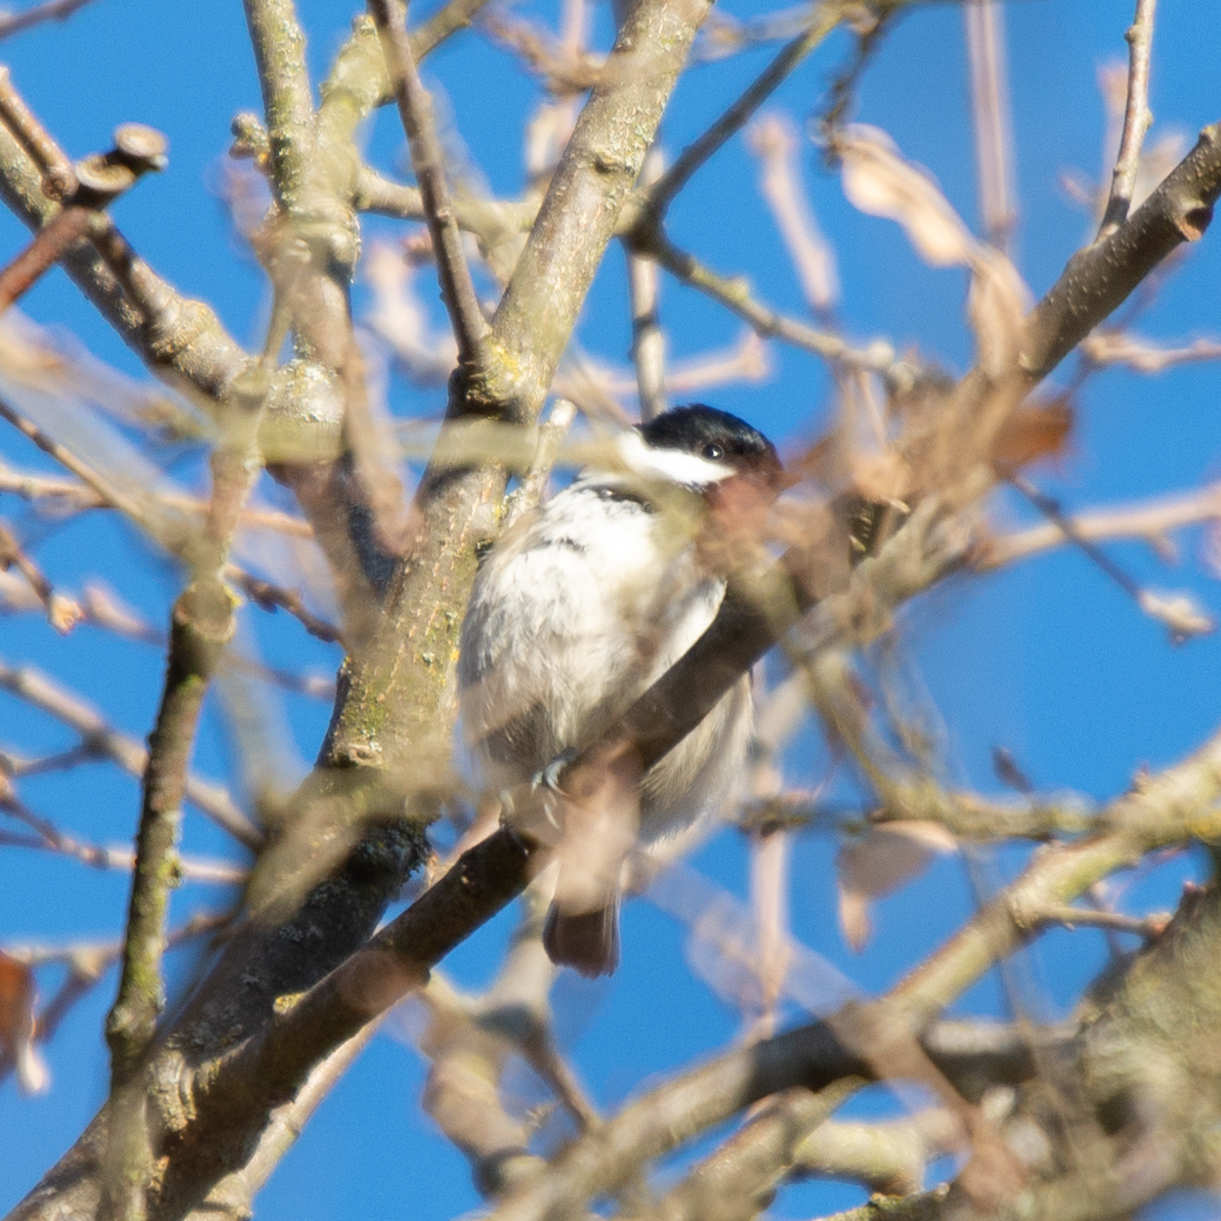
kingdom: Animalia
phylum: Chordata
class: Aves
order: Passeriformes
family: Paridae
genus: Periparus
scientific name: Periparus ater
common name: Coal tit
